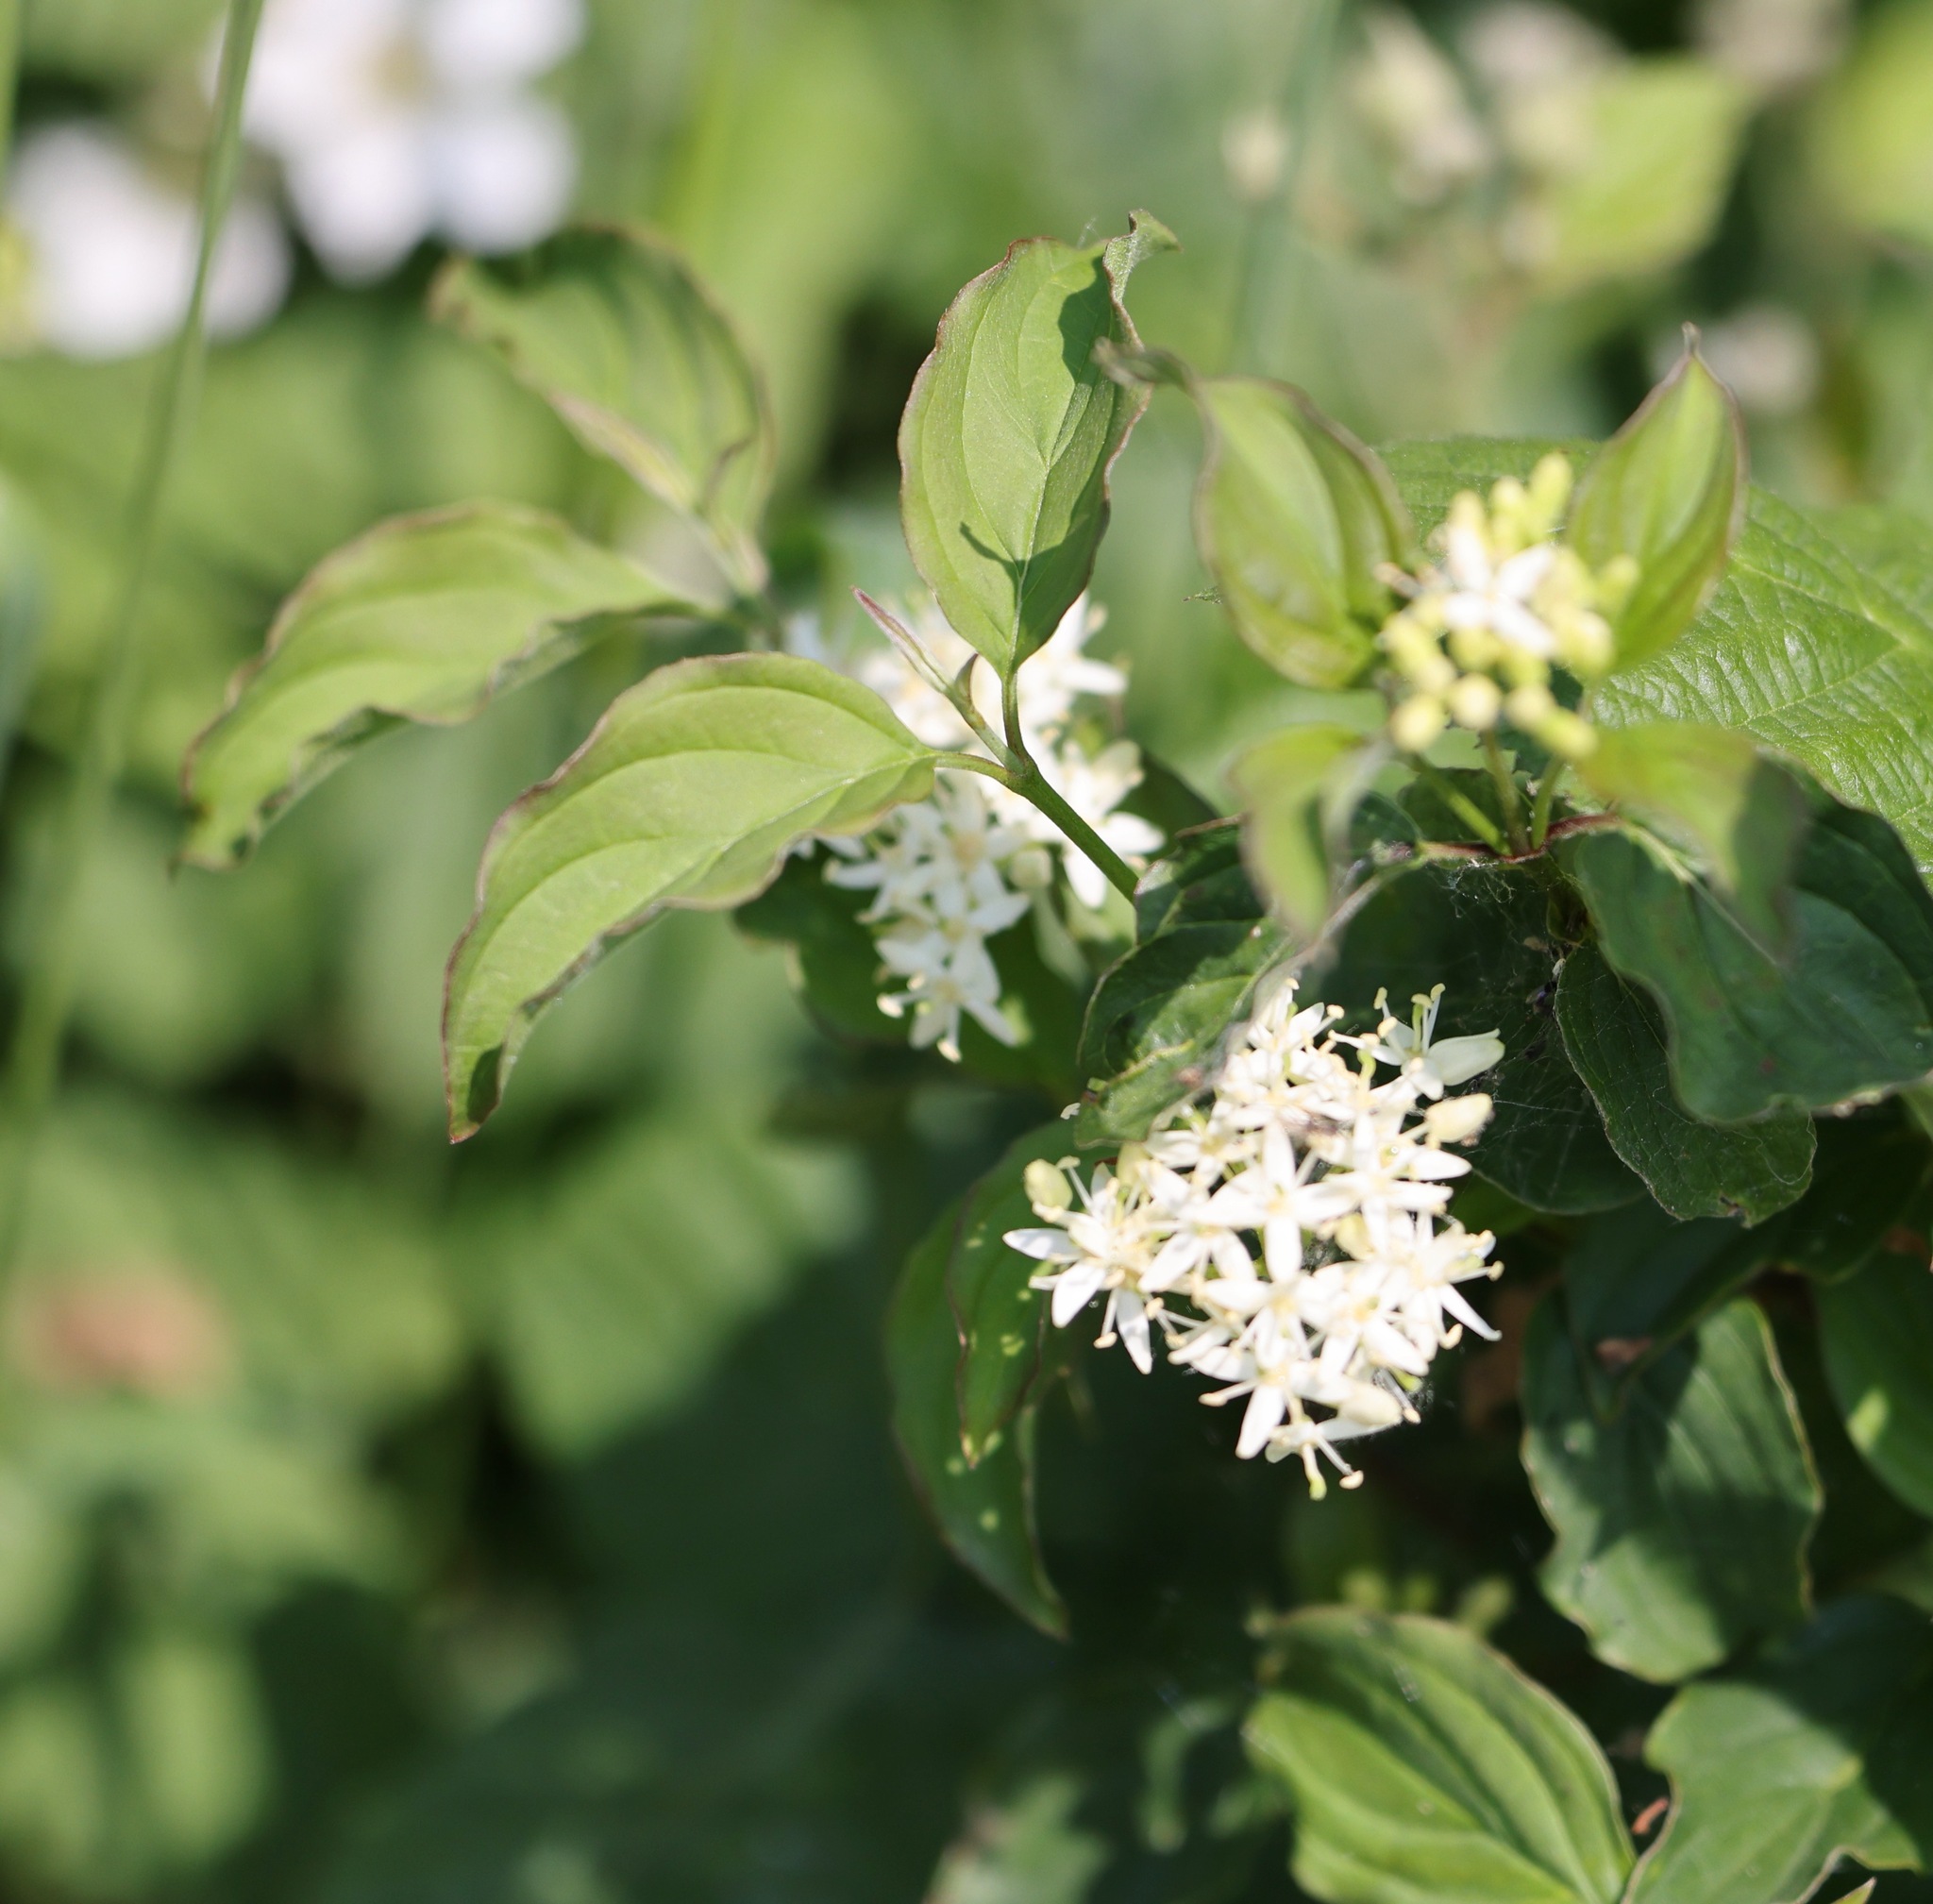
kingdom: Plantae
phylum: Tracheophyta
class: Magnoliopsida
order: Cornales
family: Cornaceae
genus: Cornus
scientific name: Cornus sanguinea
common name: Dogwood
